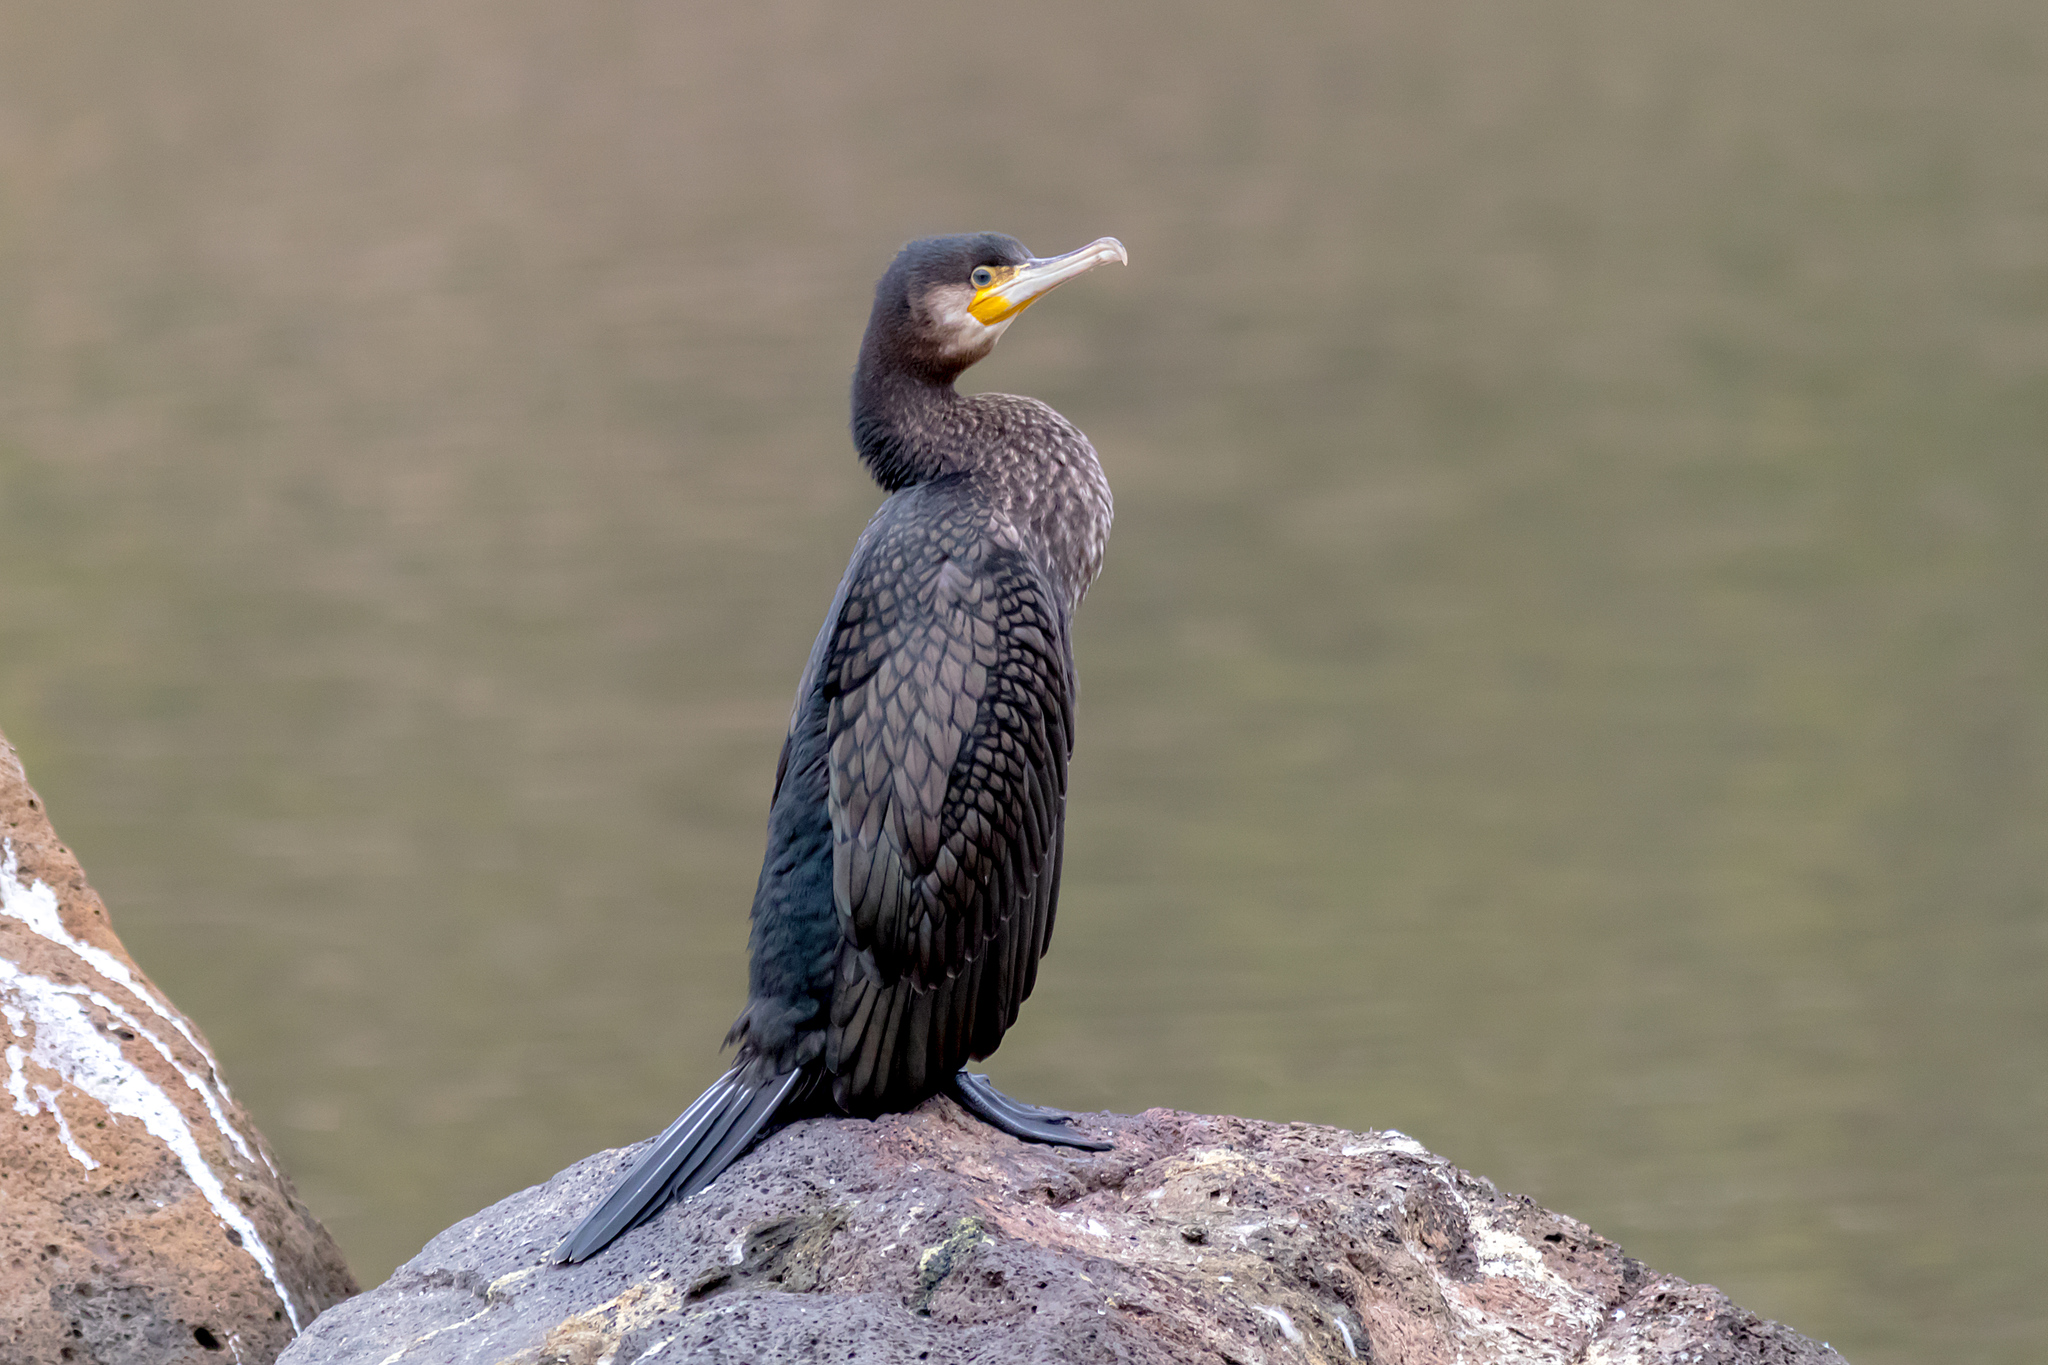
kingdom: Animalia
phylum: Chordata
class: Aves
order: Suliformes
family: Phalacrocoracidae
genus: Phalacrocorax
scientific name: Phalacrocorax carbo
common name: Great cormorant
